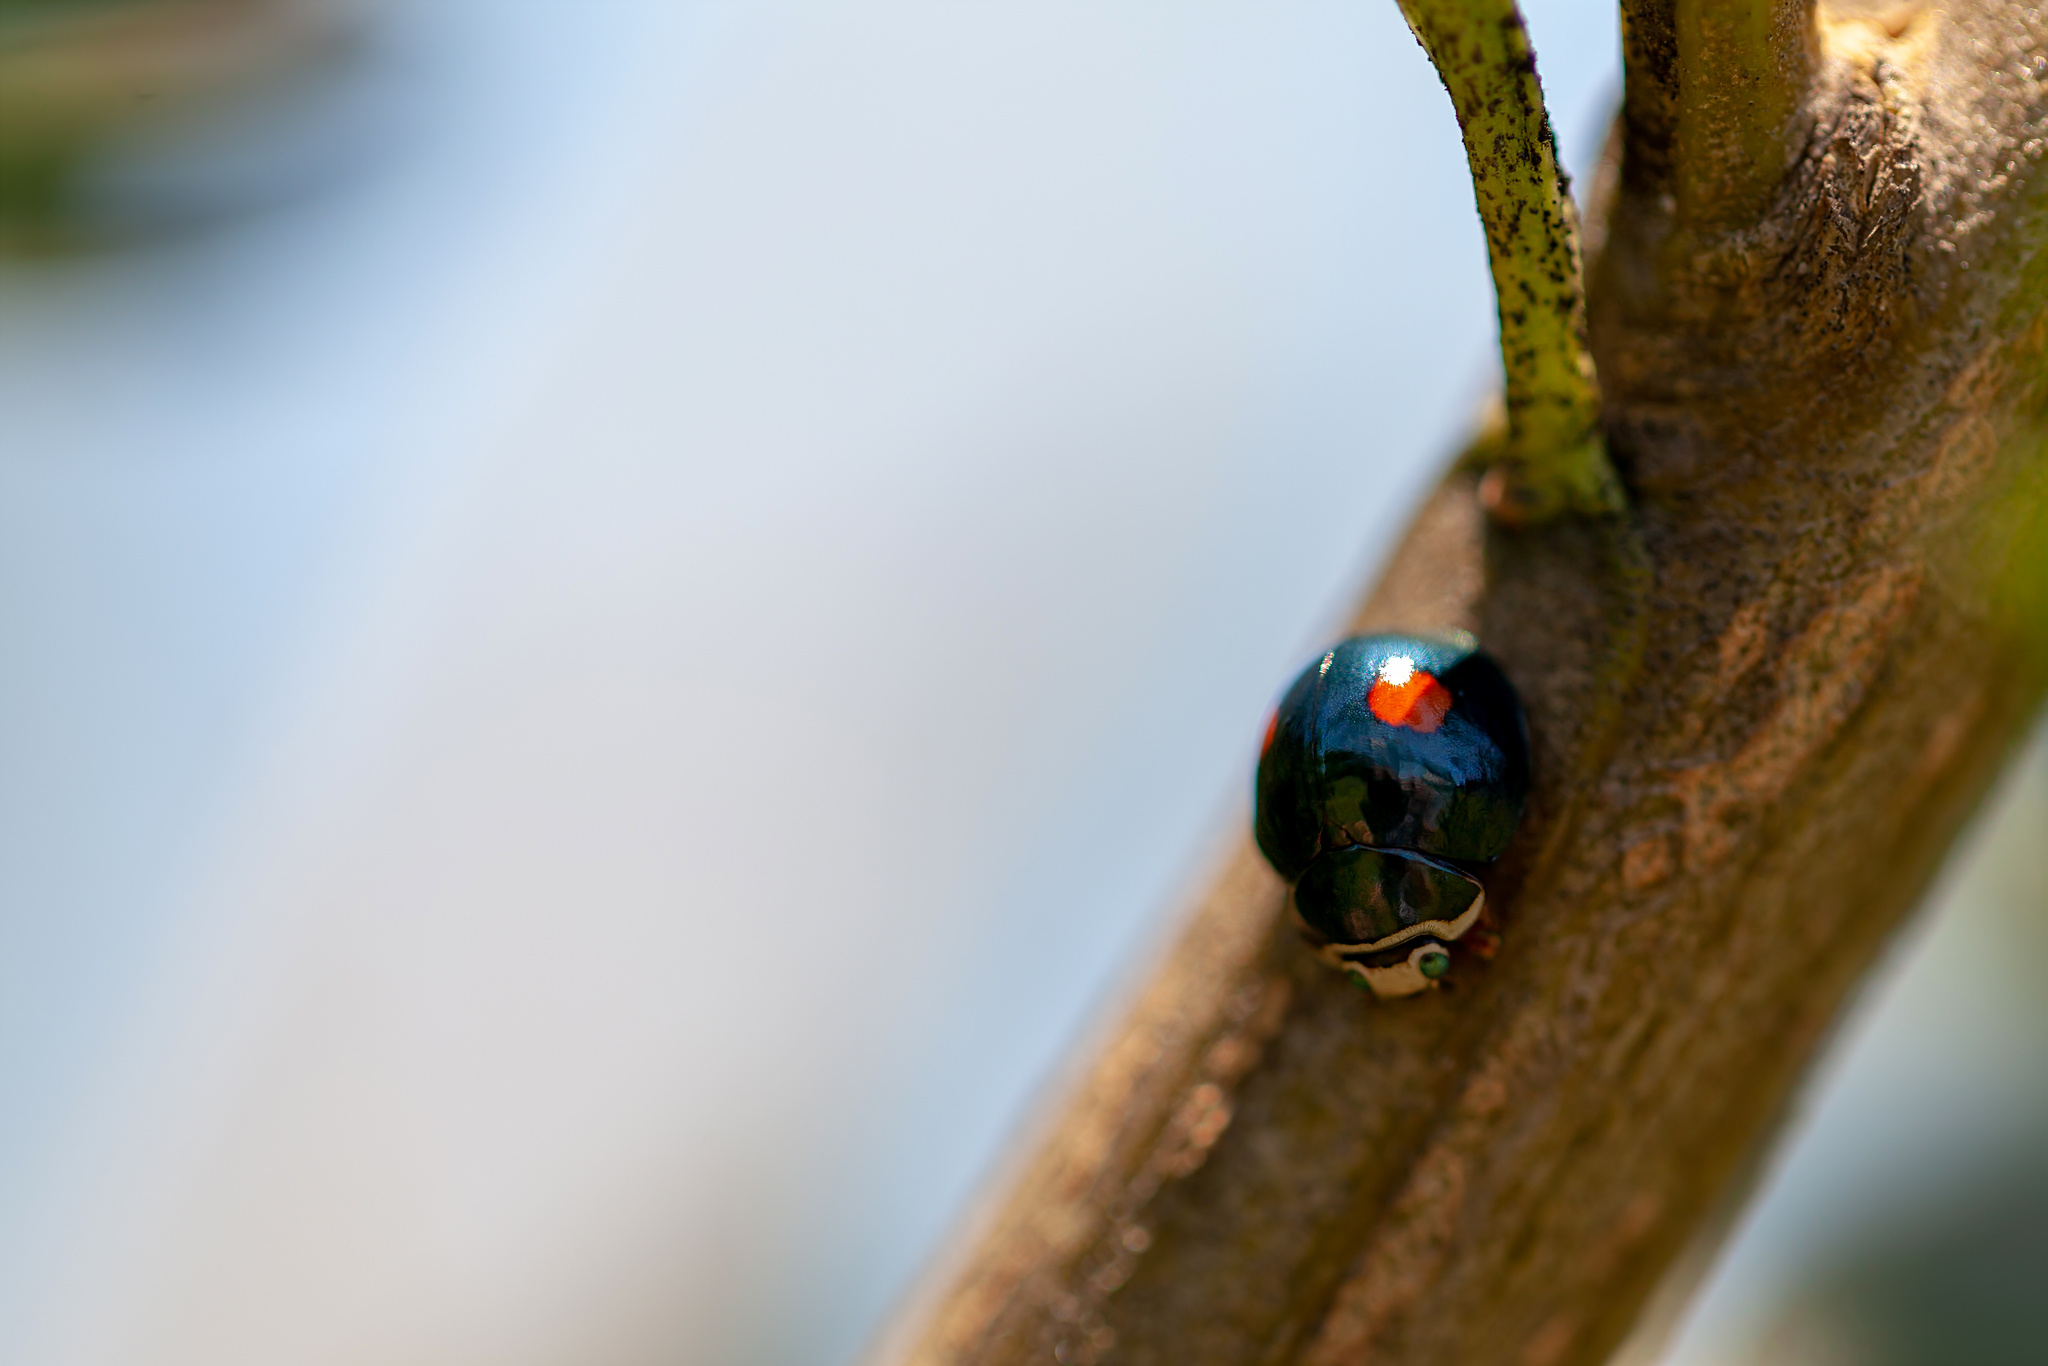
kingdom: Animalia
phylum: Arthropoda
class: Insecta
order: Coleoptera
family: Coccinellidae
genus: Thalassa
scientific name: Thalassa montezumae
